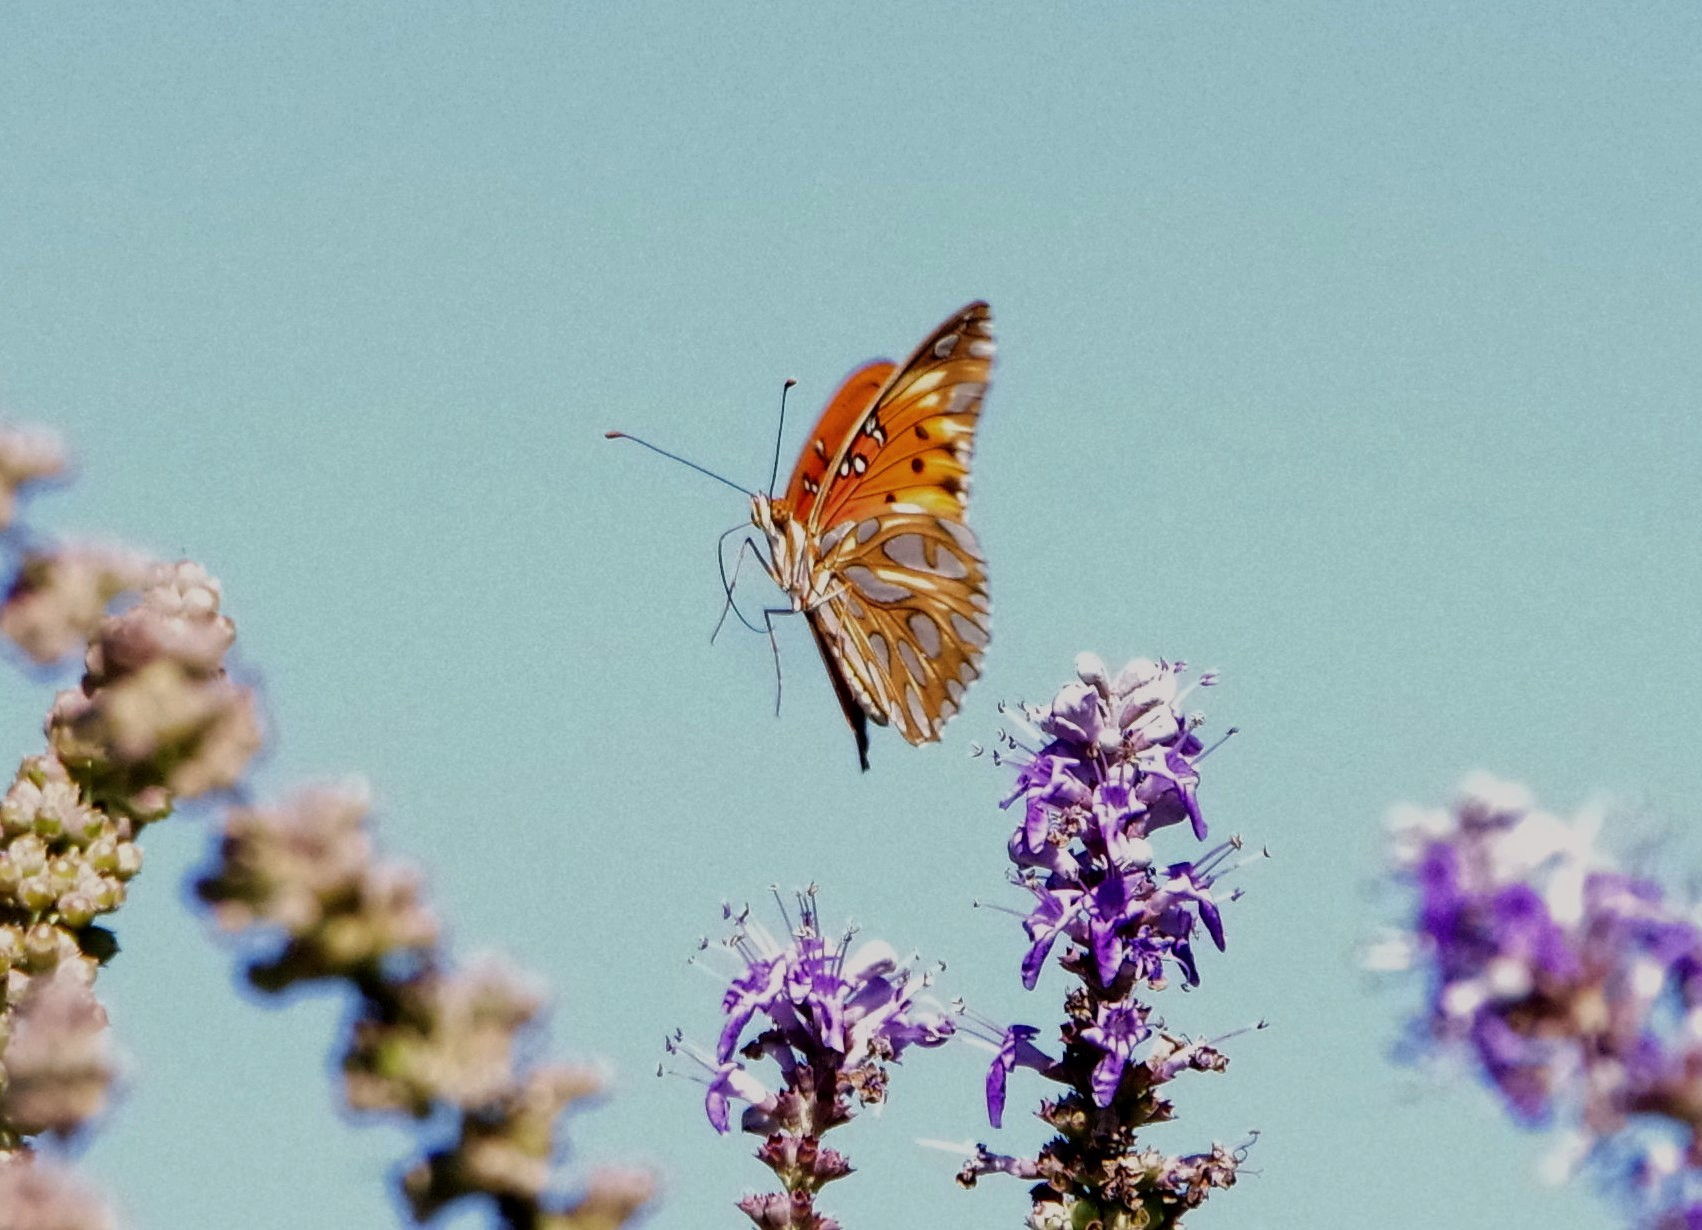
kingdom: Animalia
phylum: Arthropoda
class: Insecta
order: Lepidoptera
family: Nymphalidae
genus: Dione
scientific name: Dione vanillae
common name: Gulf fritillary
